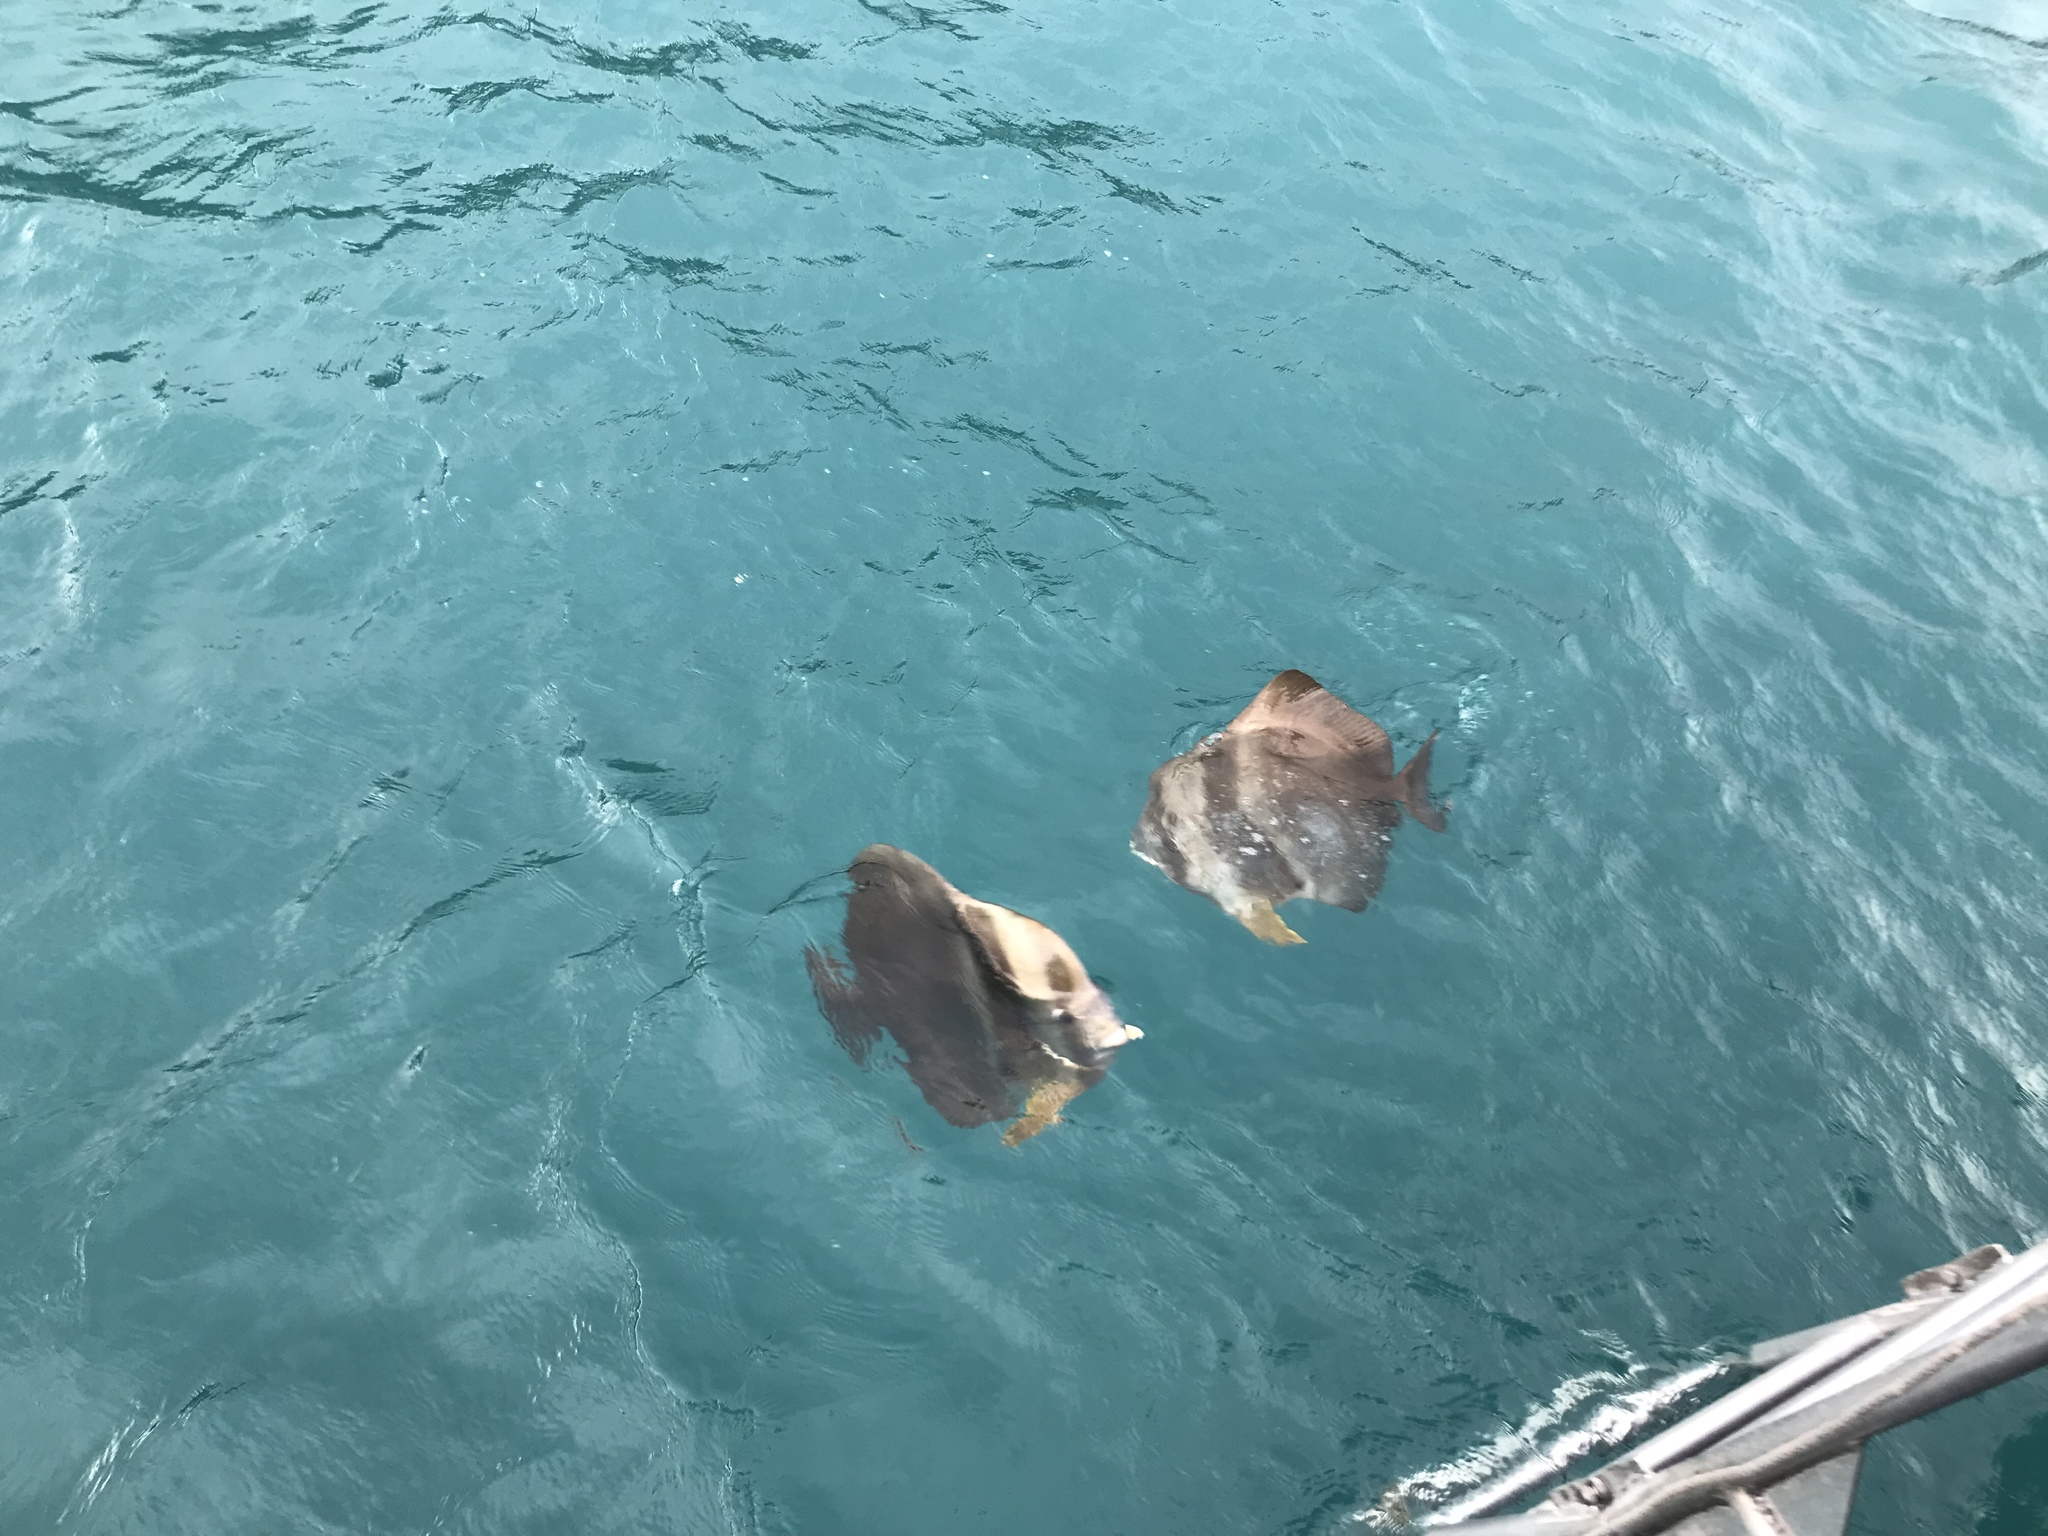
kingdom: Animalia
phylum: Chordata
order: Perciformes
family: Ephippidae
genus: Platax
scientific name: Platax teira
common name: Longfin baitfish
